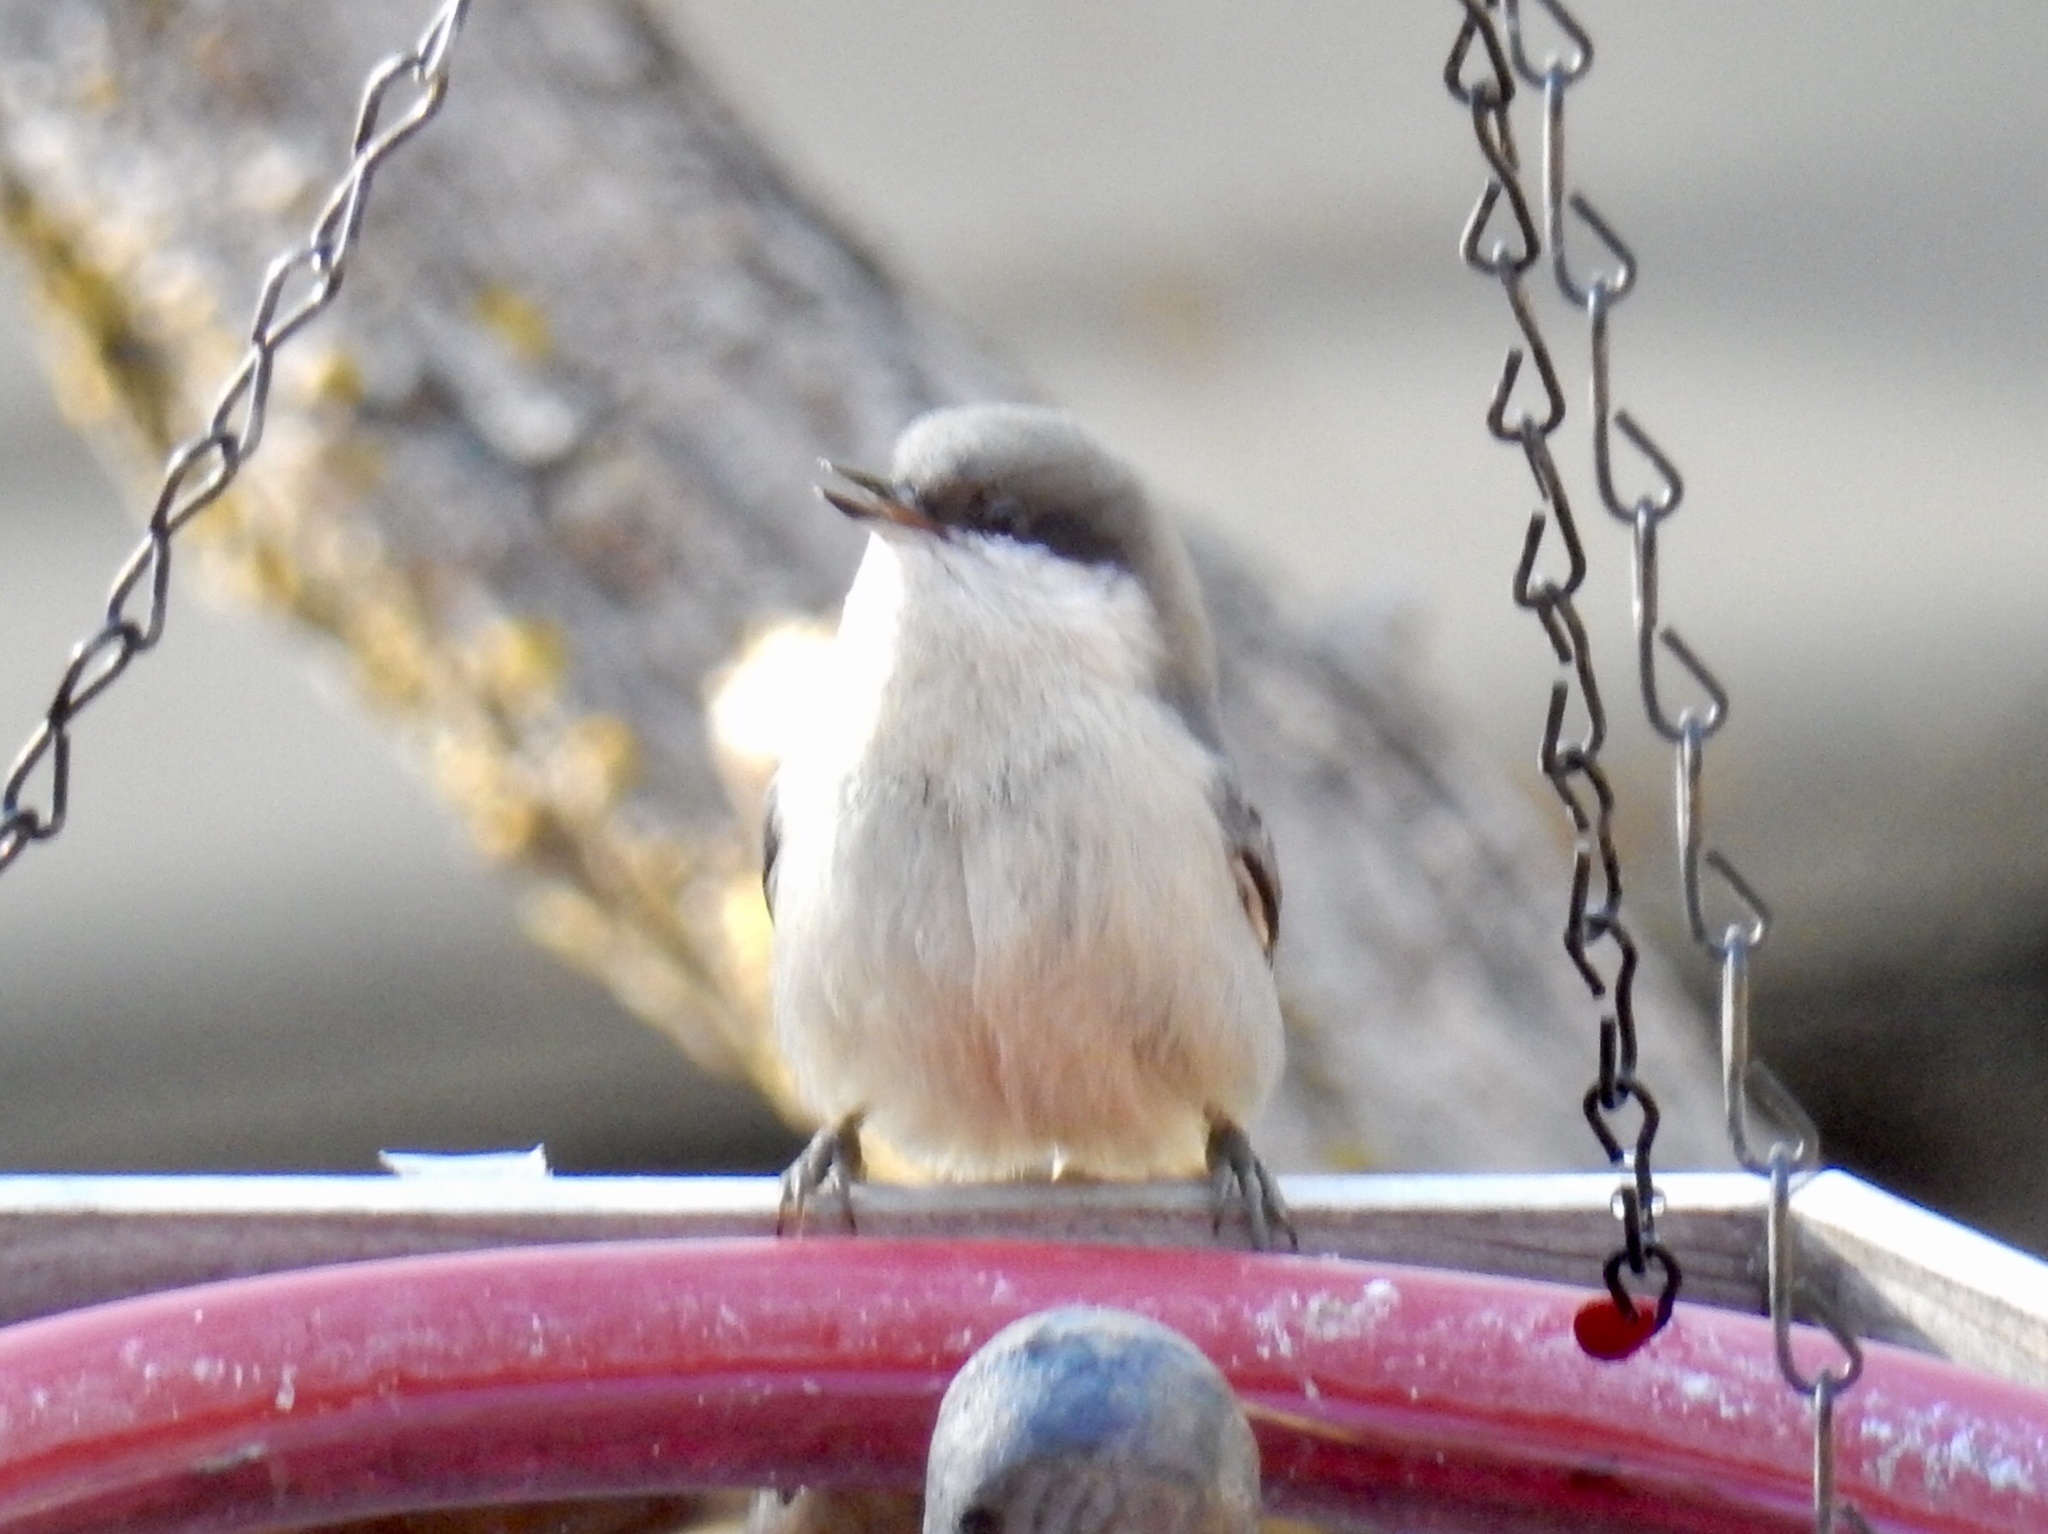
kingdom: Animalia
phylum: Chordata
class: Aves
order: Passeriformes
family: Sittidae
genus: Sitta
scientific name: Sitta pygmaea
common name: Pygmy nuthatch
